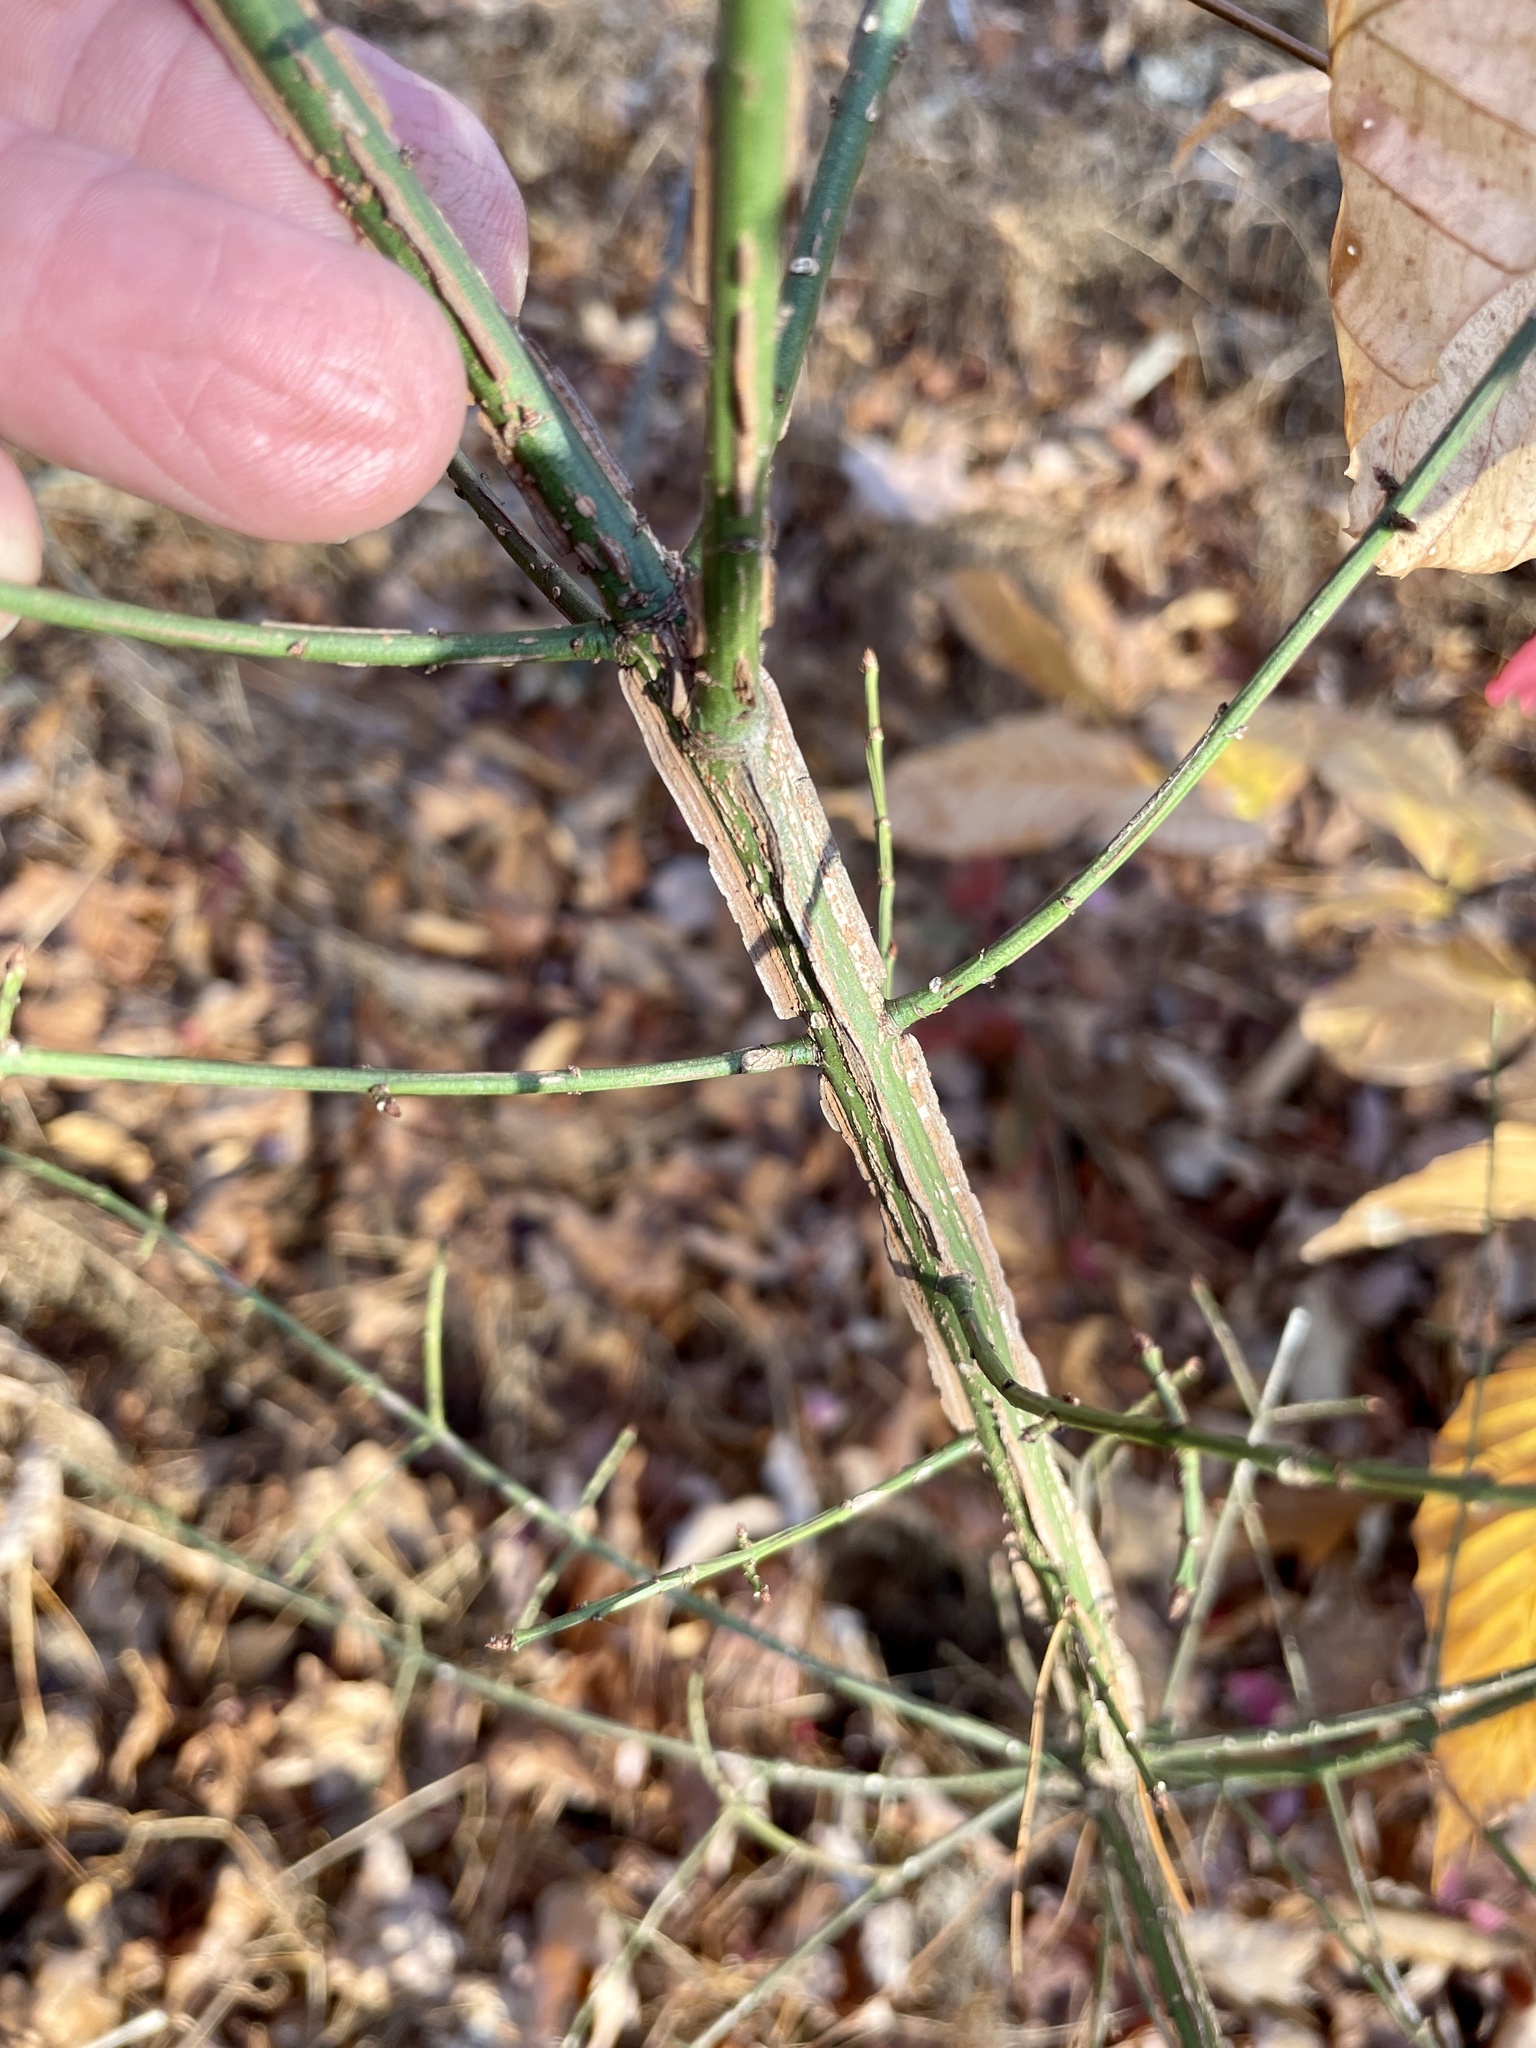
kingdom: Plantae
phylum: Tracheophyta
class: Magnoliopsida
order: Celastrales
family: Celastraceae
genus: Euonymus
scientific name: Euonymus alatus
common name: Winged euonymus
